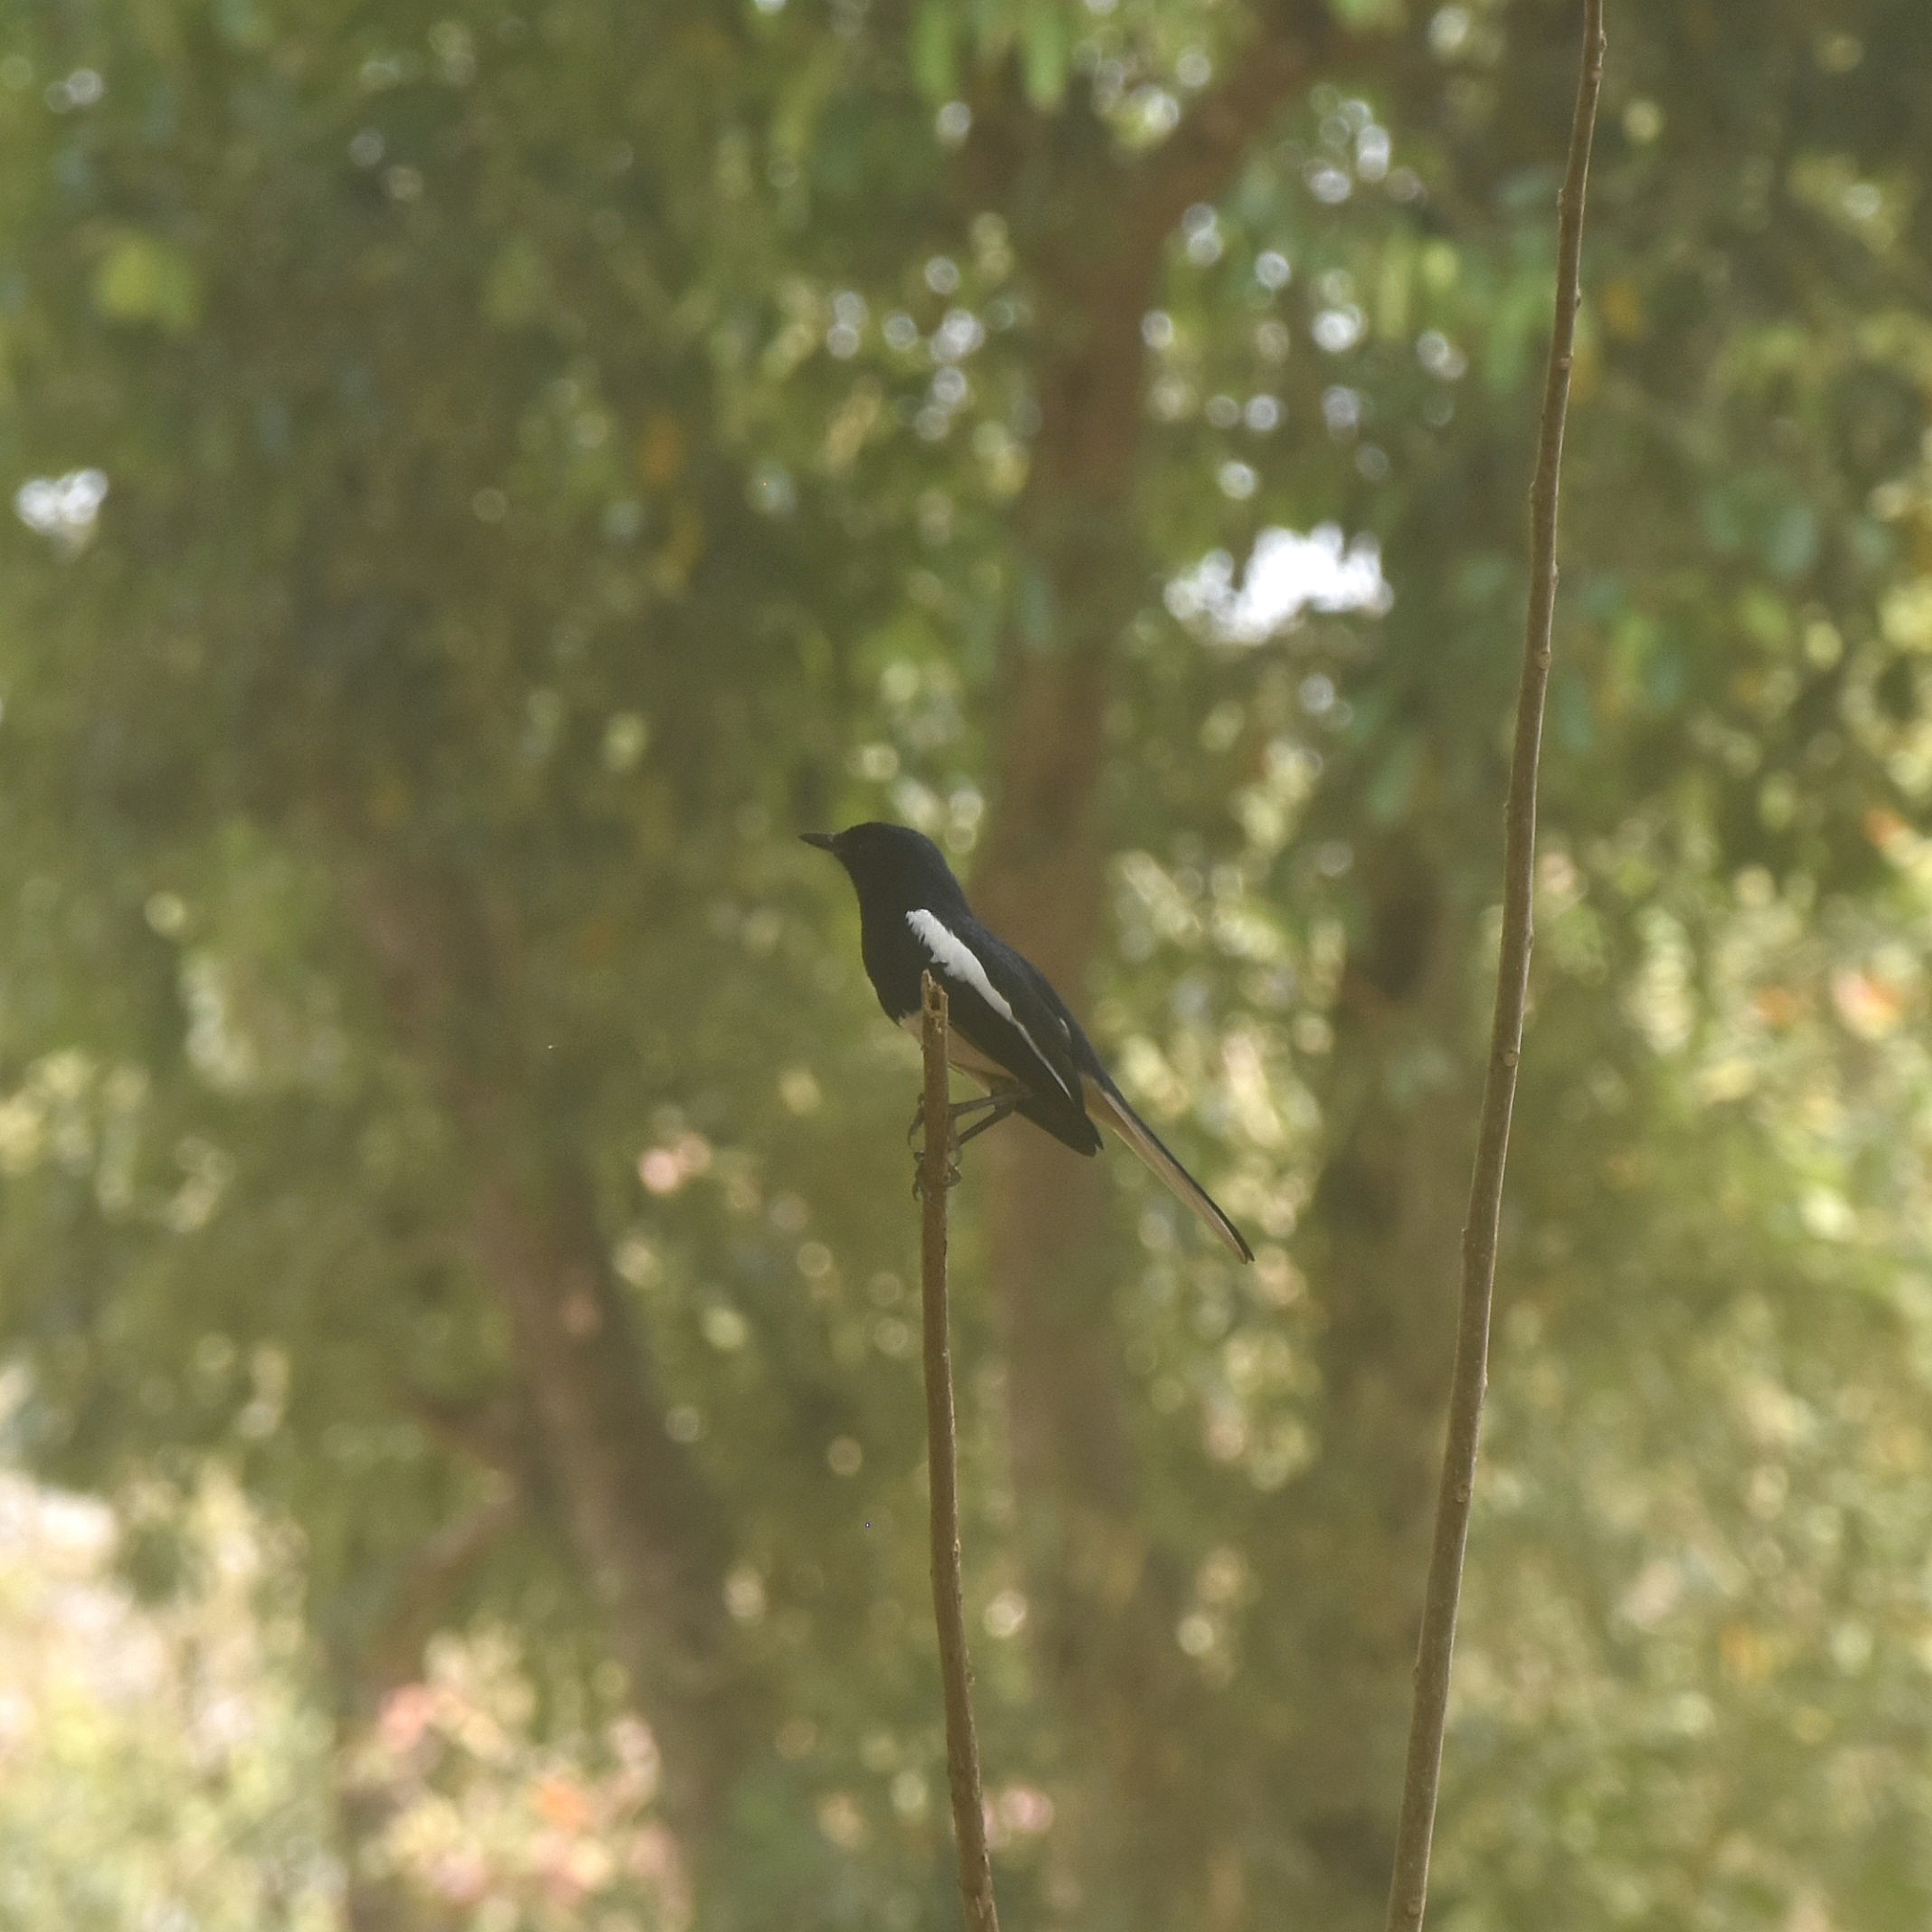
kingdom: Animalia
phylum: Chordata
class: Aves
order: Passeriformes
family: Muscicapidae
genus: Copsychus
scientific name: Copsychus saularis
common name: Oriental magpie-robin
